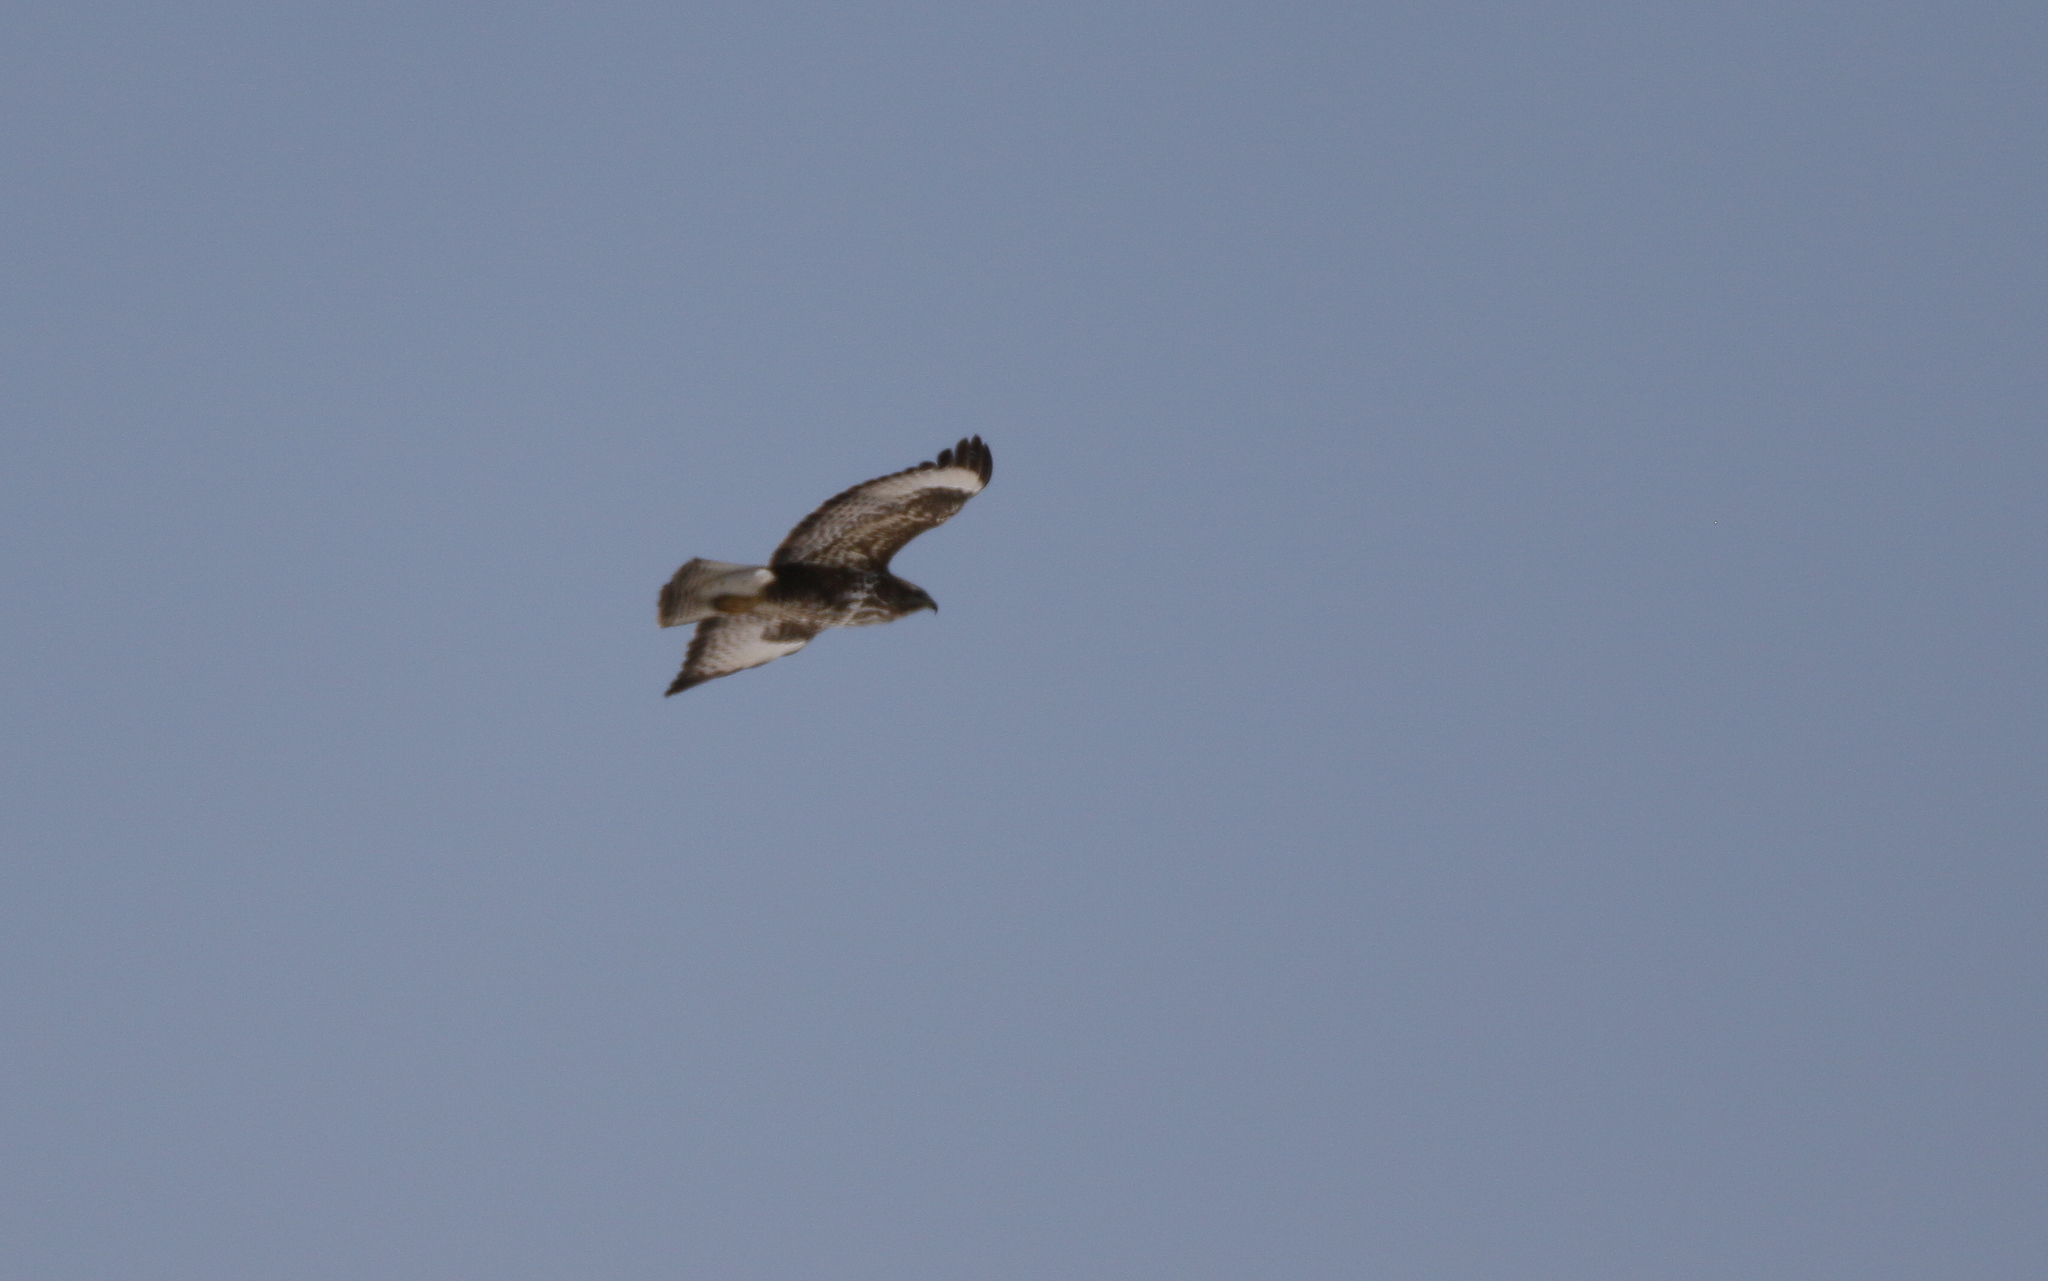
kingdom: Animalia
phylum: Chordata
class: Aves
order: Accipitriformes
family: Accipitridae
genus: Buteo
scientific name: Buteo buteo
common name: Common buzzard
